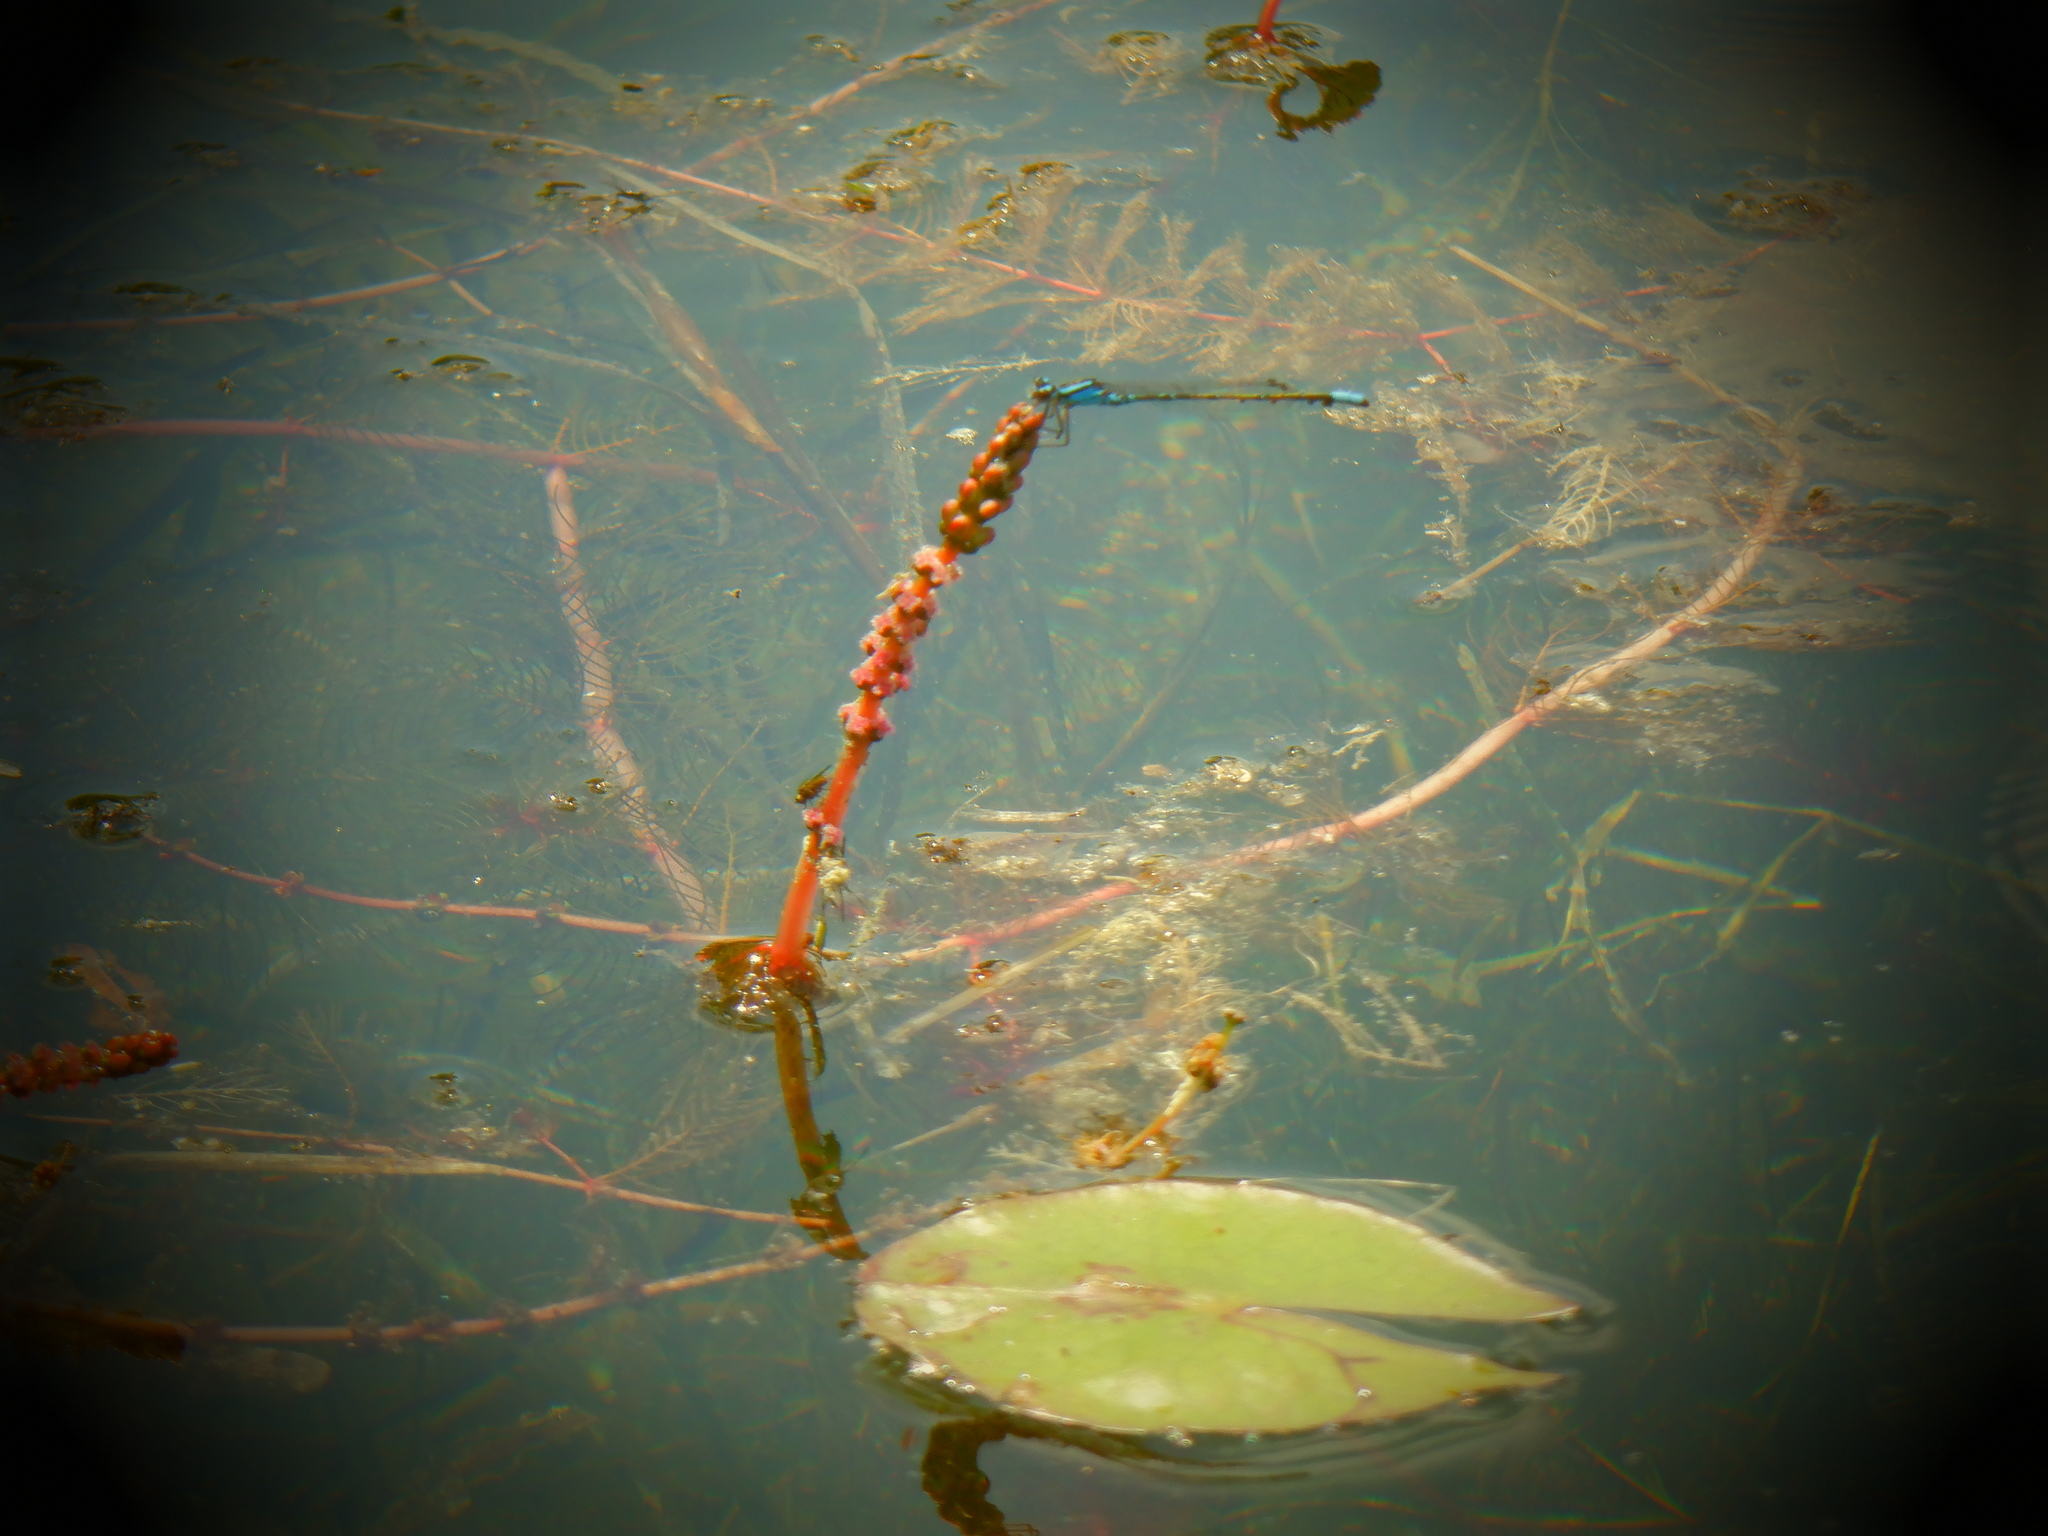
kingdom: Animalia
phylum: Arthropoda
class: Insecta
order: Odonata
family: Coenagrionidae
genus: Enallagma
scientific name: Enallagma geminatum
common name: Skimming bluet
